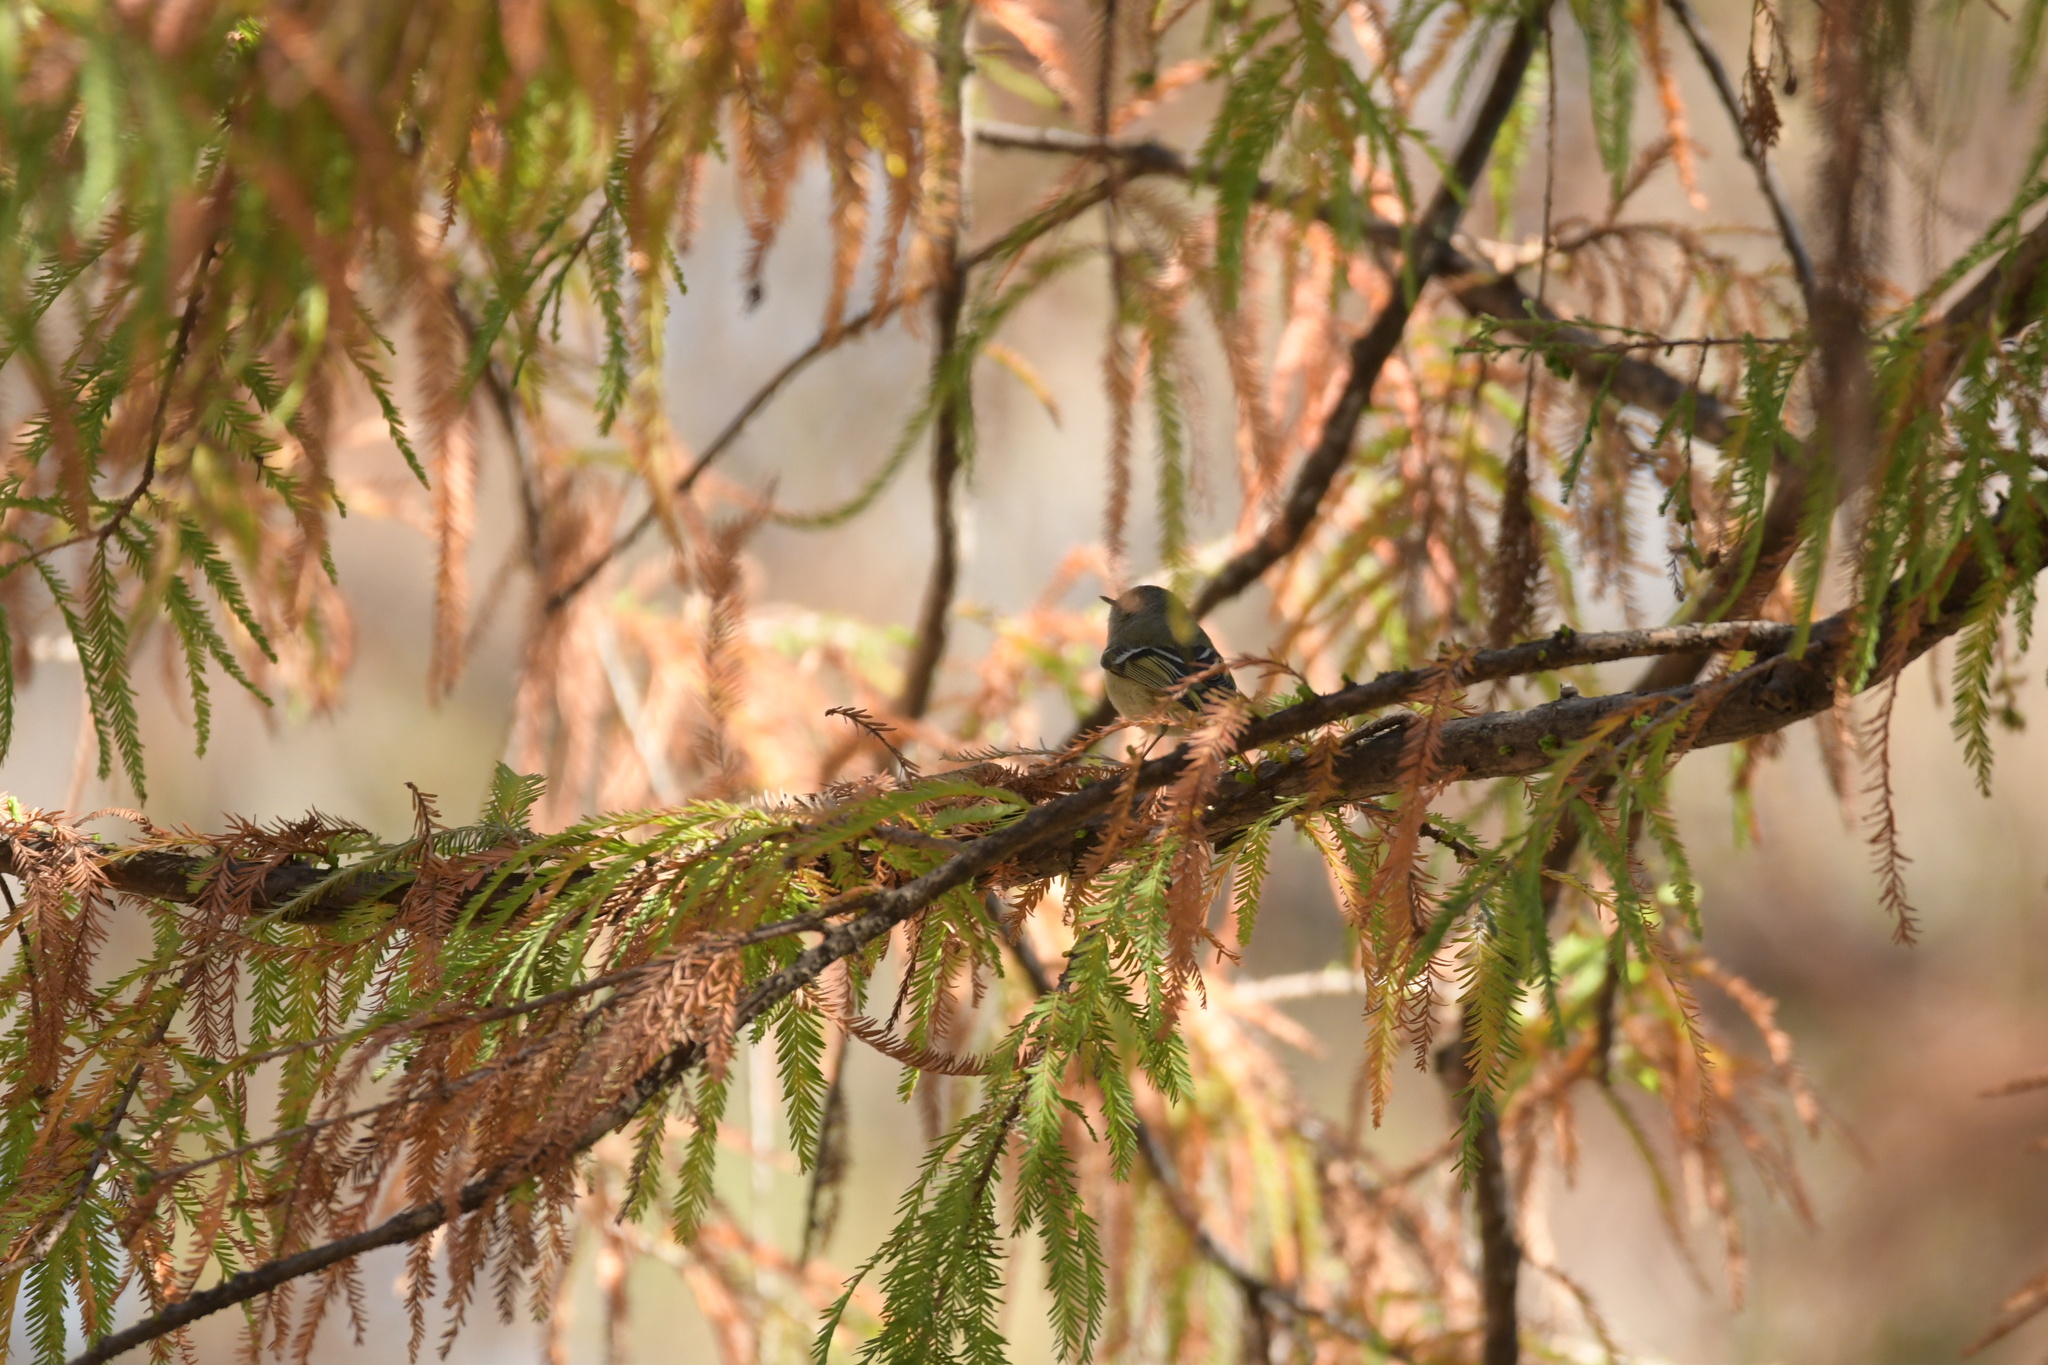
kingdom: Animalia
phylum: Chordata
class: Aves
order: Passeriformes
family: Regulidae
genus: Regulus
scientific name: Regulus calendula
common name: Ruby-crowned kinglet
